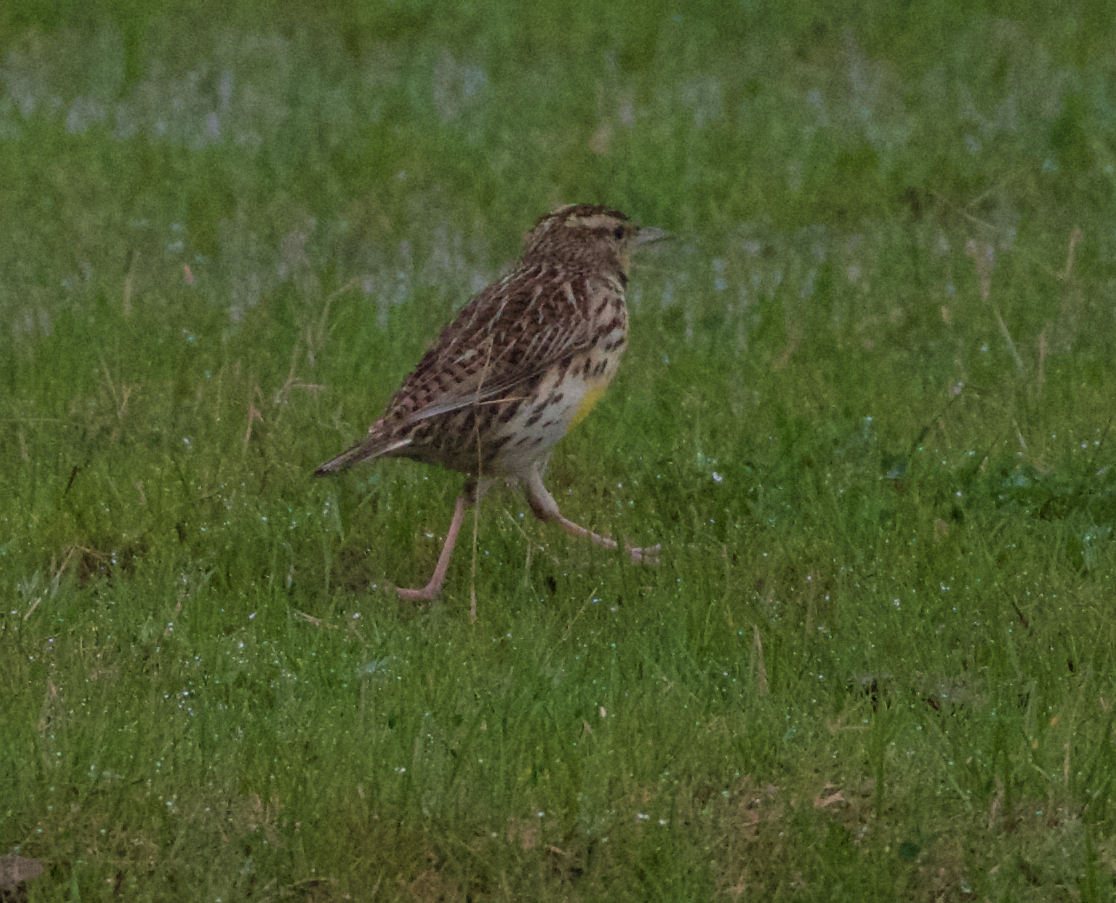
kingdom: Animalia
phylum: Chordata
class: Aves
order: Passeriformes
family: Icteridae
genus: Sturnella
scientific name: Sturnella neglecta
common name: Western meadowlark
